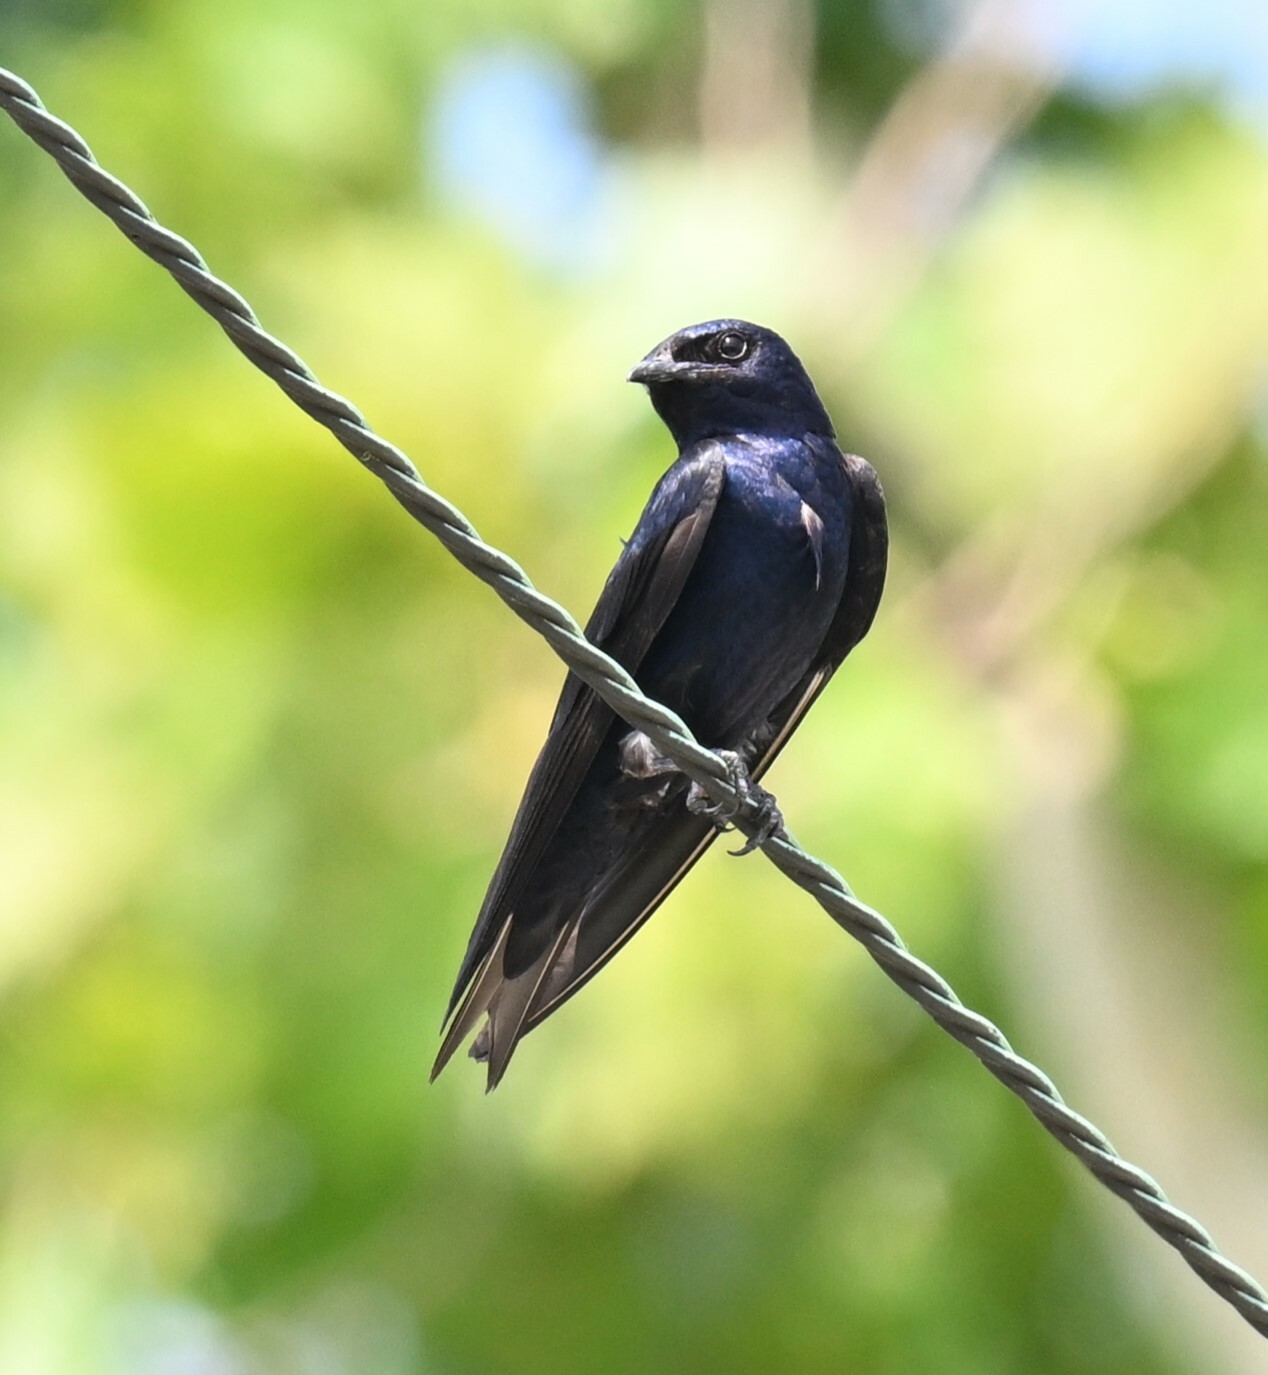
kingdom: Animalia
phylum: Chordata
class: Aves
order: Passeriformes
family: Hirundinidae
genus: Progne
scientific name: Progne subis
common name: Purple martin
